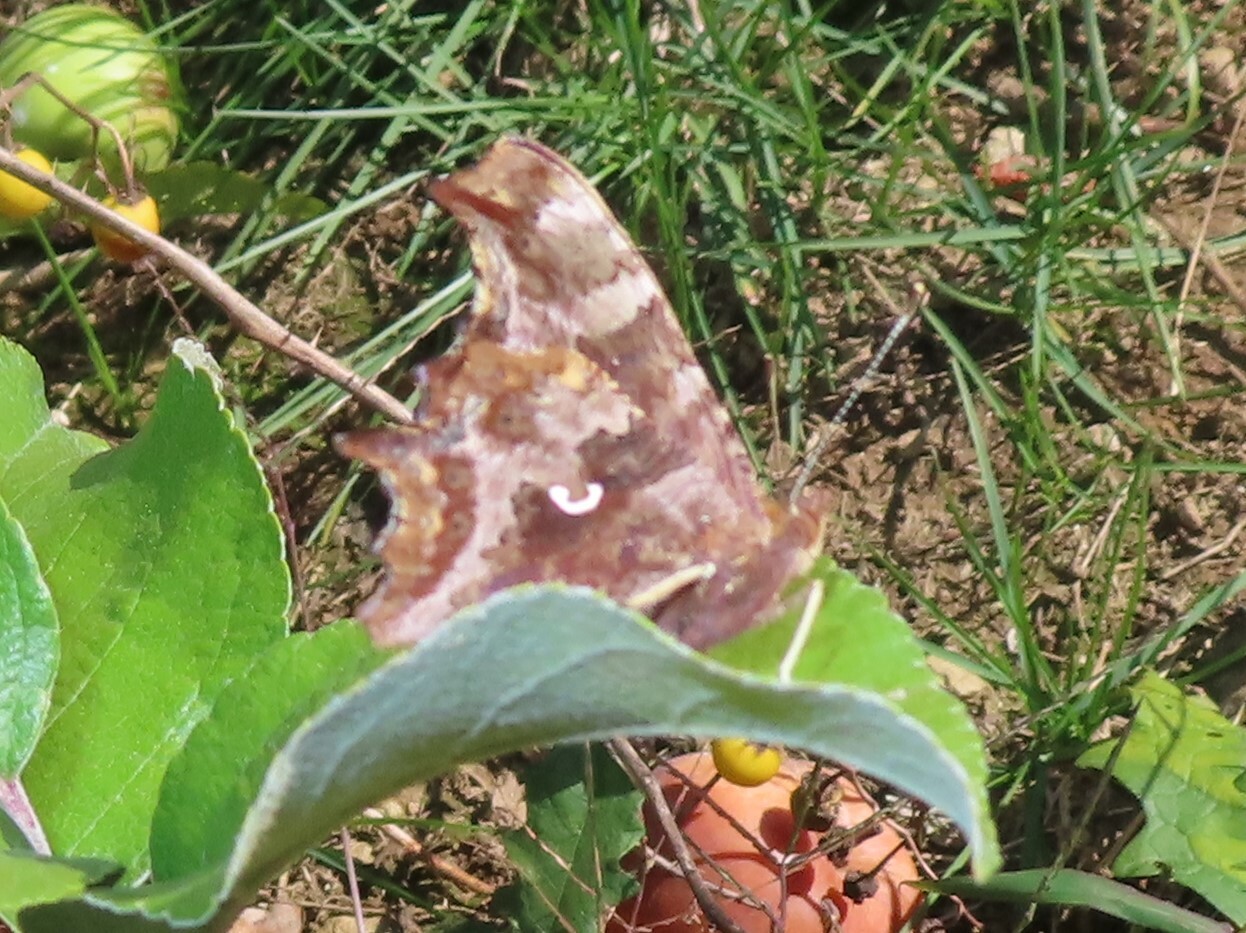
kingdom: Animalia
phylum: Arthropoda
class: Insecta
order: Lepidoptera
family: Nymphalidae
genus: Polygonia
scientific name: Polygonia comma
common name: Eastern comma
